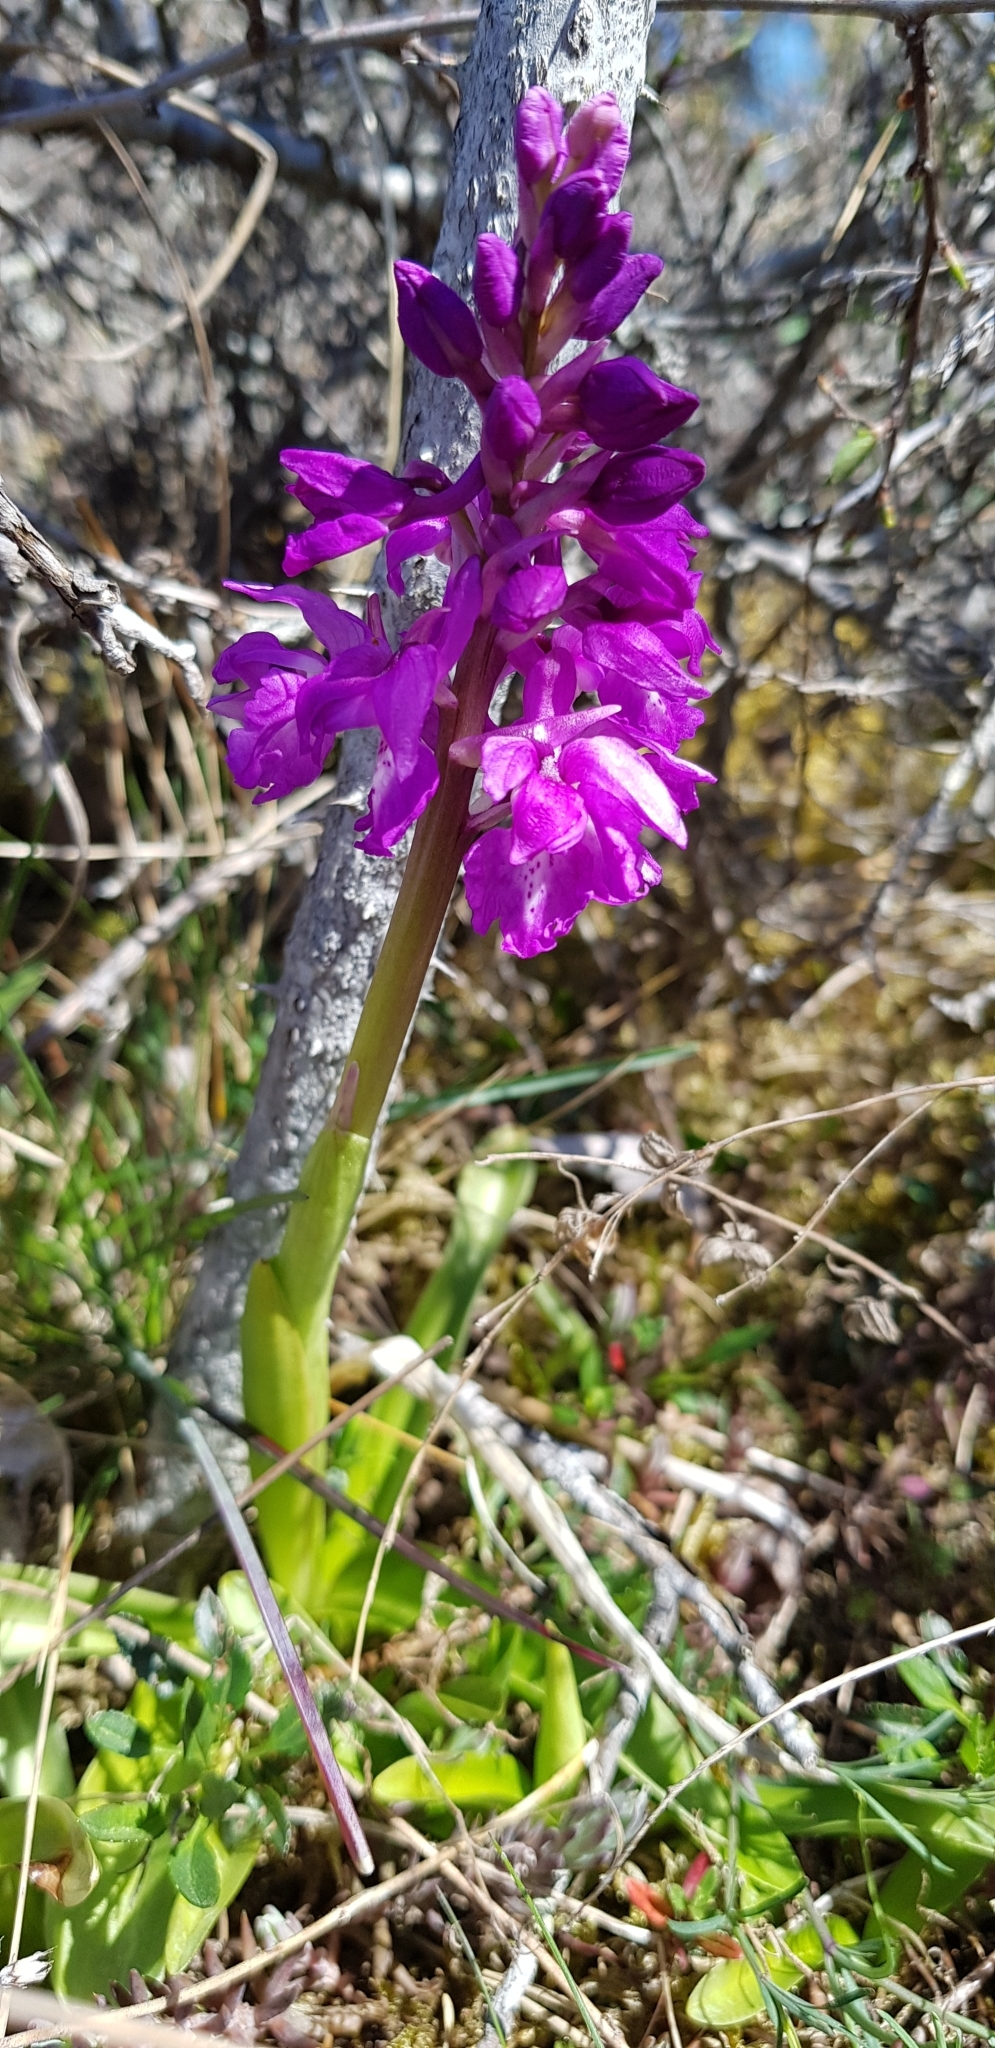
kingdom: Plantae
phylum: Tracheophyta
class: Liliopsida
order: Asparagales
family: Orchidaceae
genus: Orchis
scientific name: Orchis mascula
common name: Early-purple orchid
